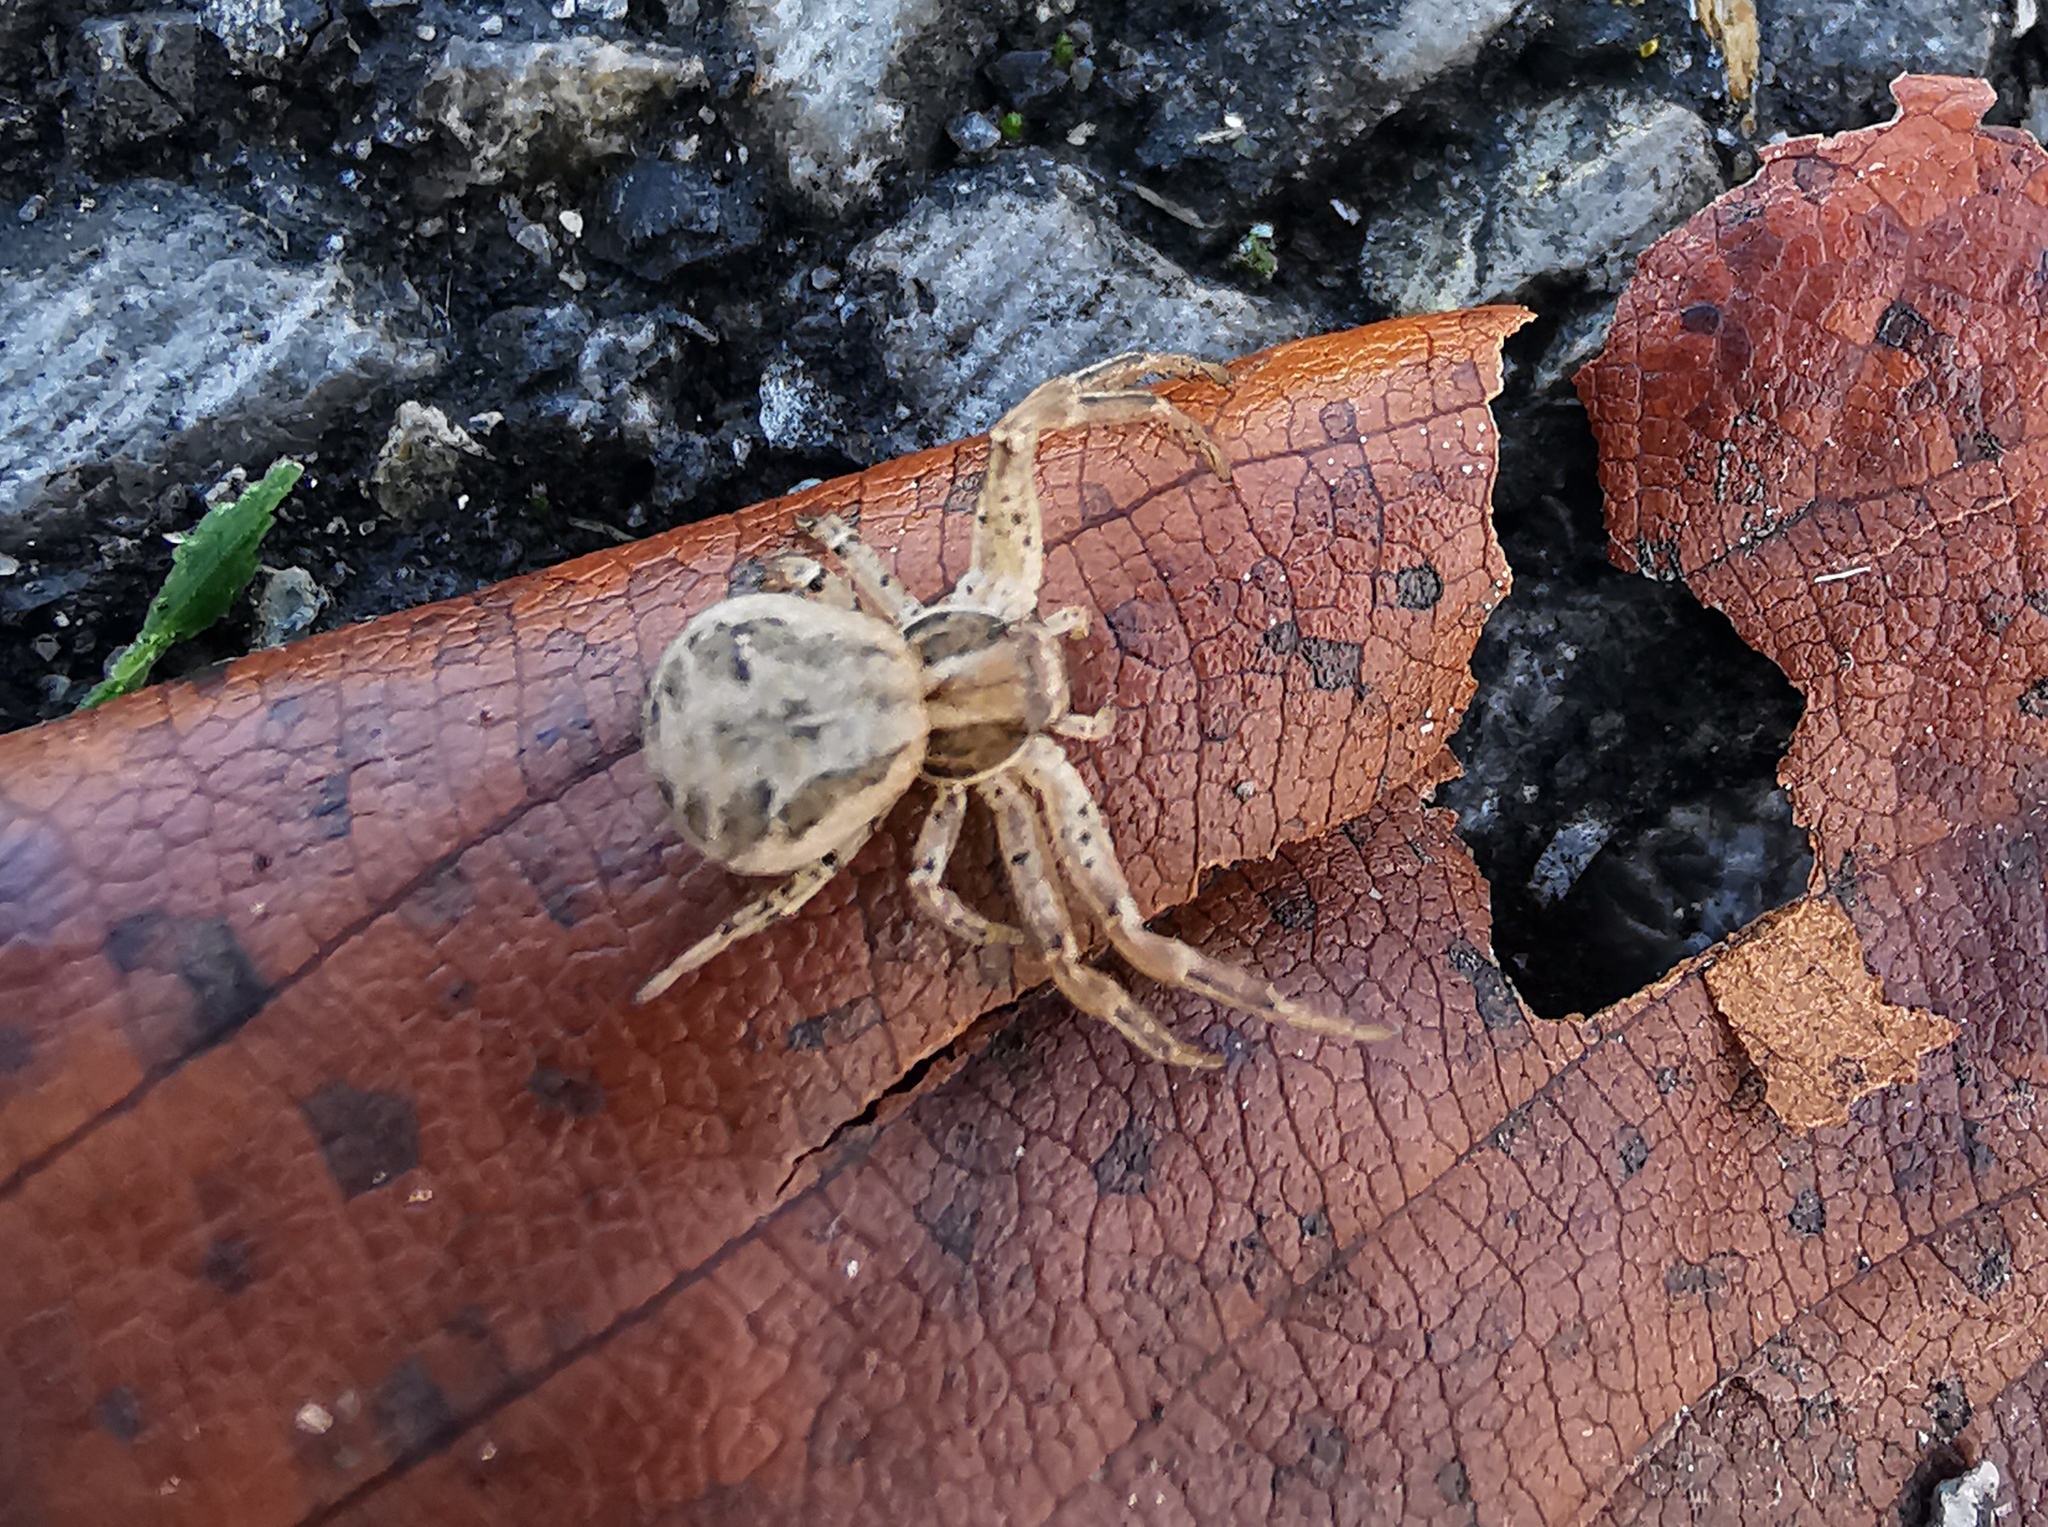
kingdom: Animalia
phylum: Arthropoda
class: Arachnida
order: Araneae
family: Thomisidae
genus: Xysticus
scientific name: Xysticus
